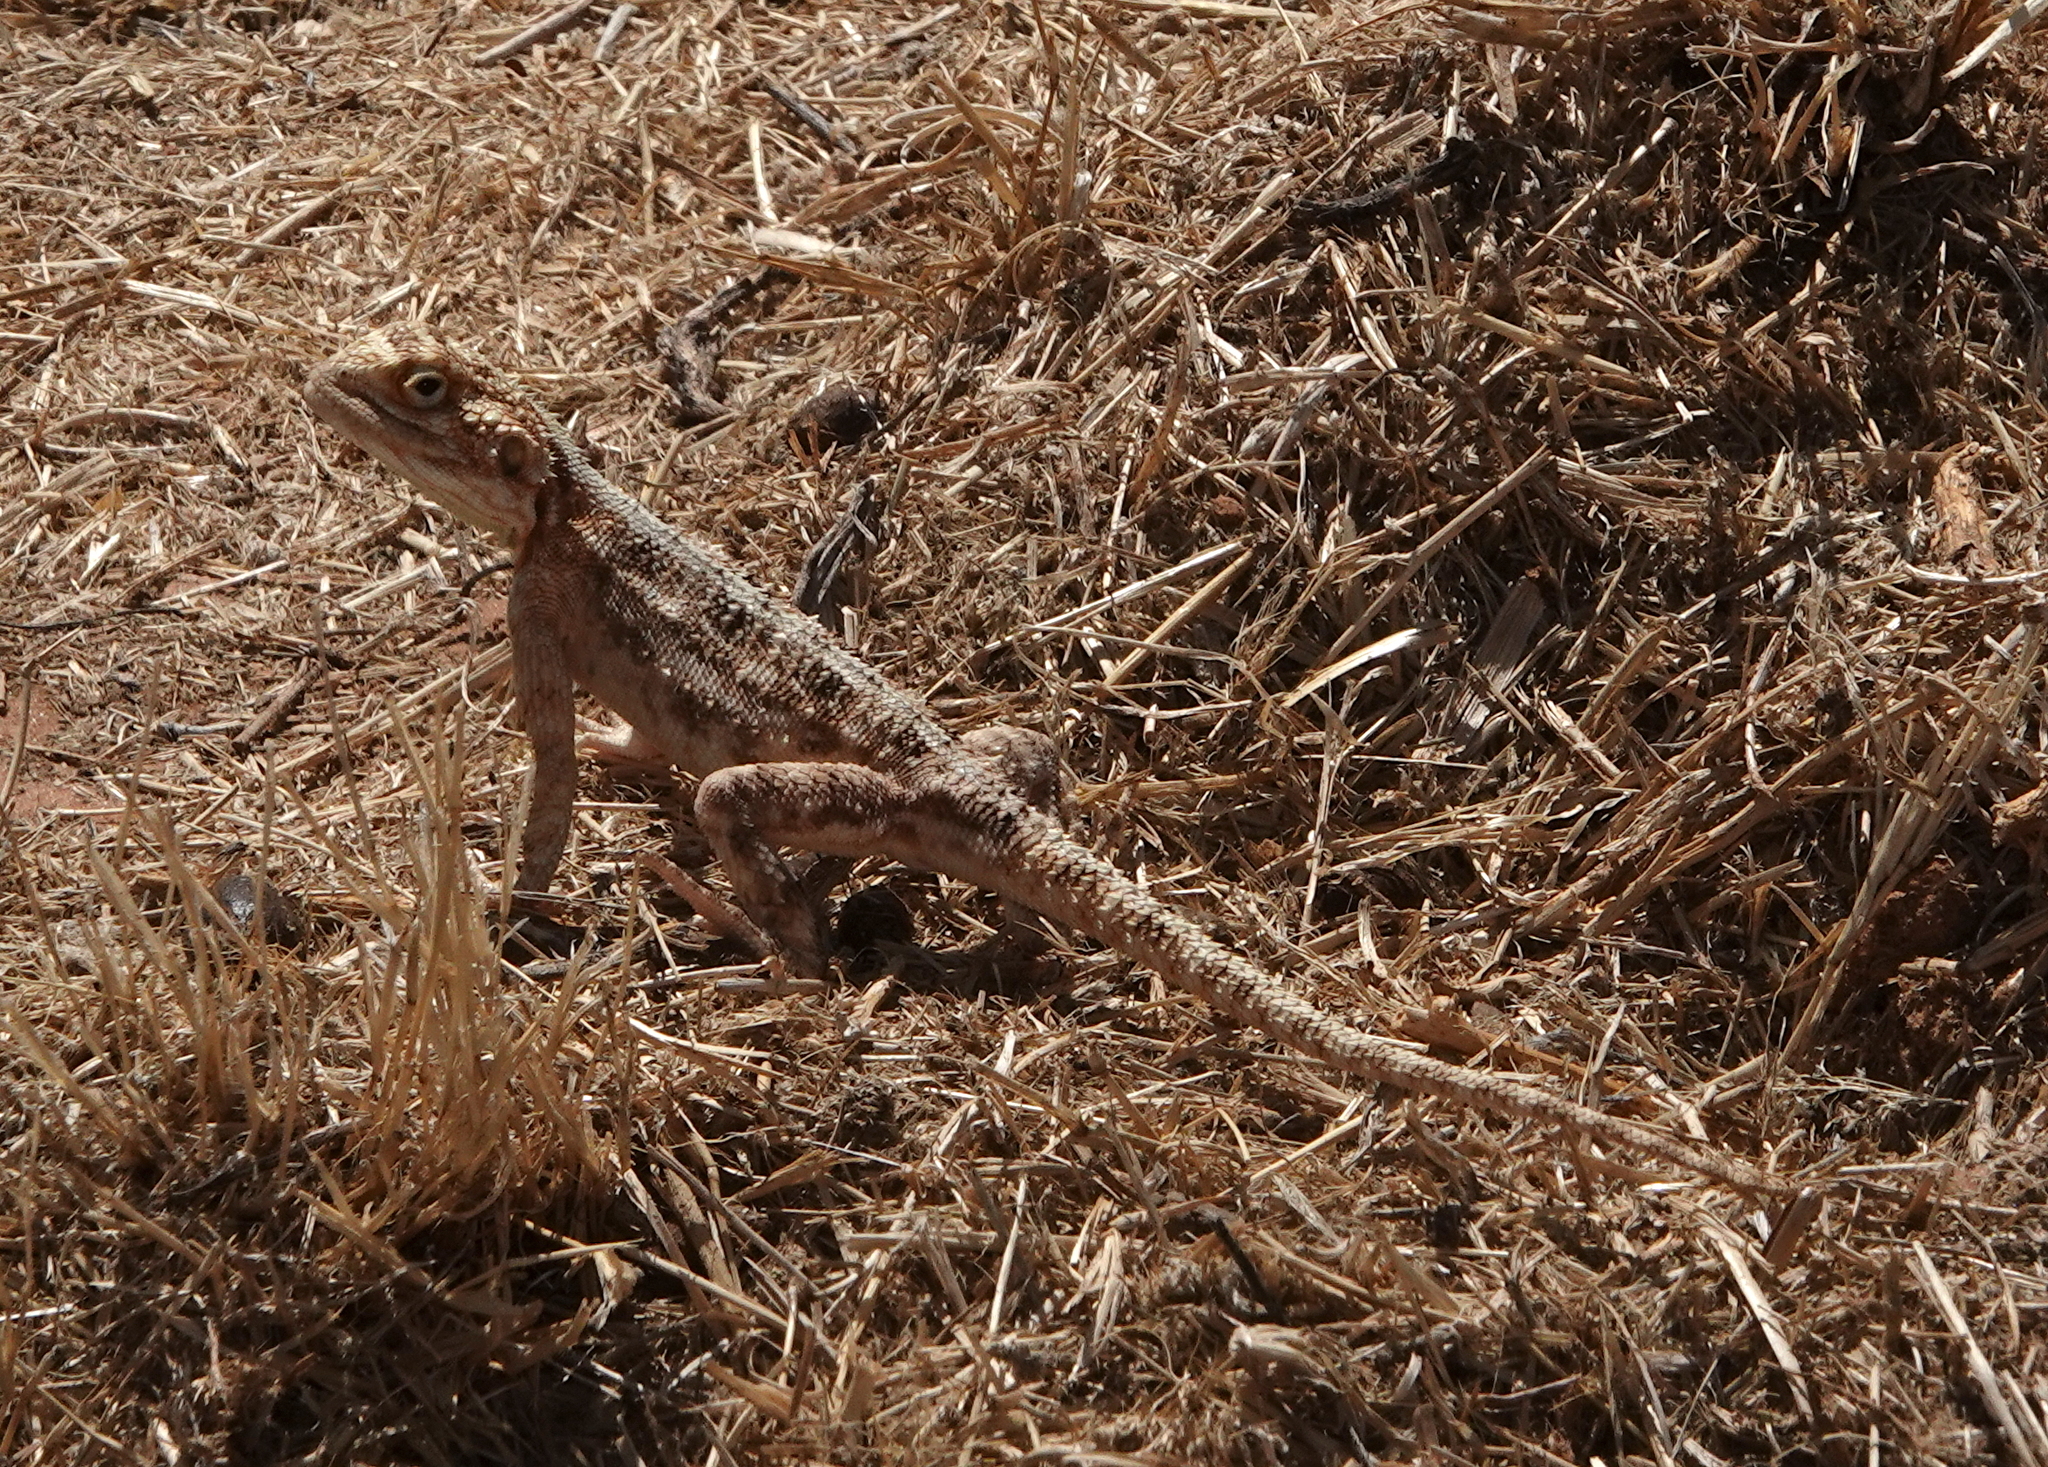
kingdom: Animalia
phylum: Chordata
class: Squamata
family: Agamidae
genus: Agama
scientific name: Agama aculeata
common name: Common ground agama
